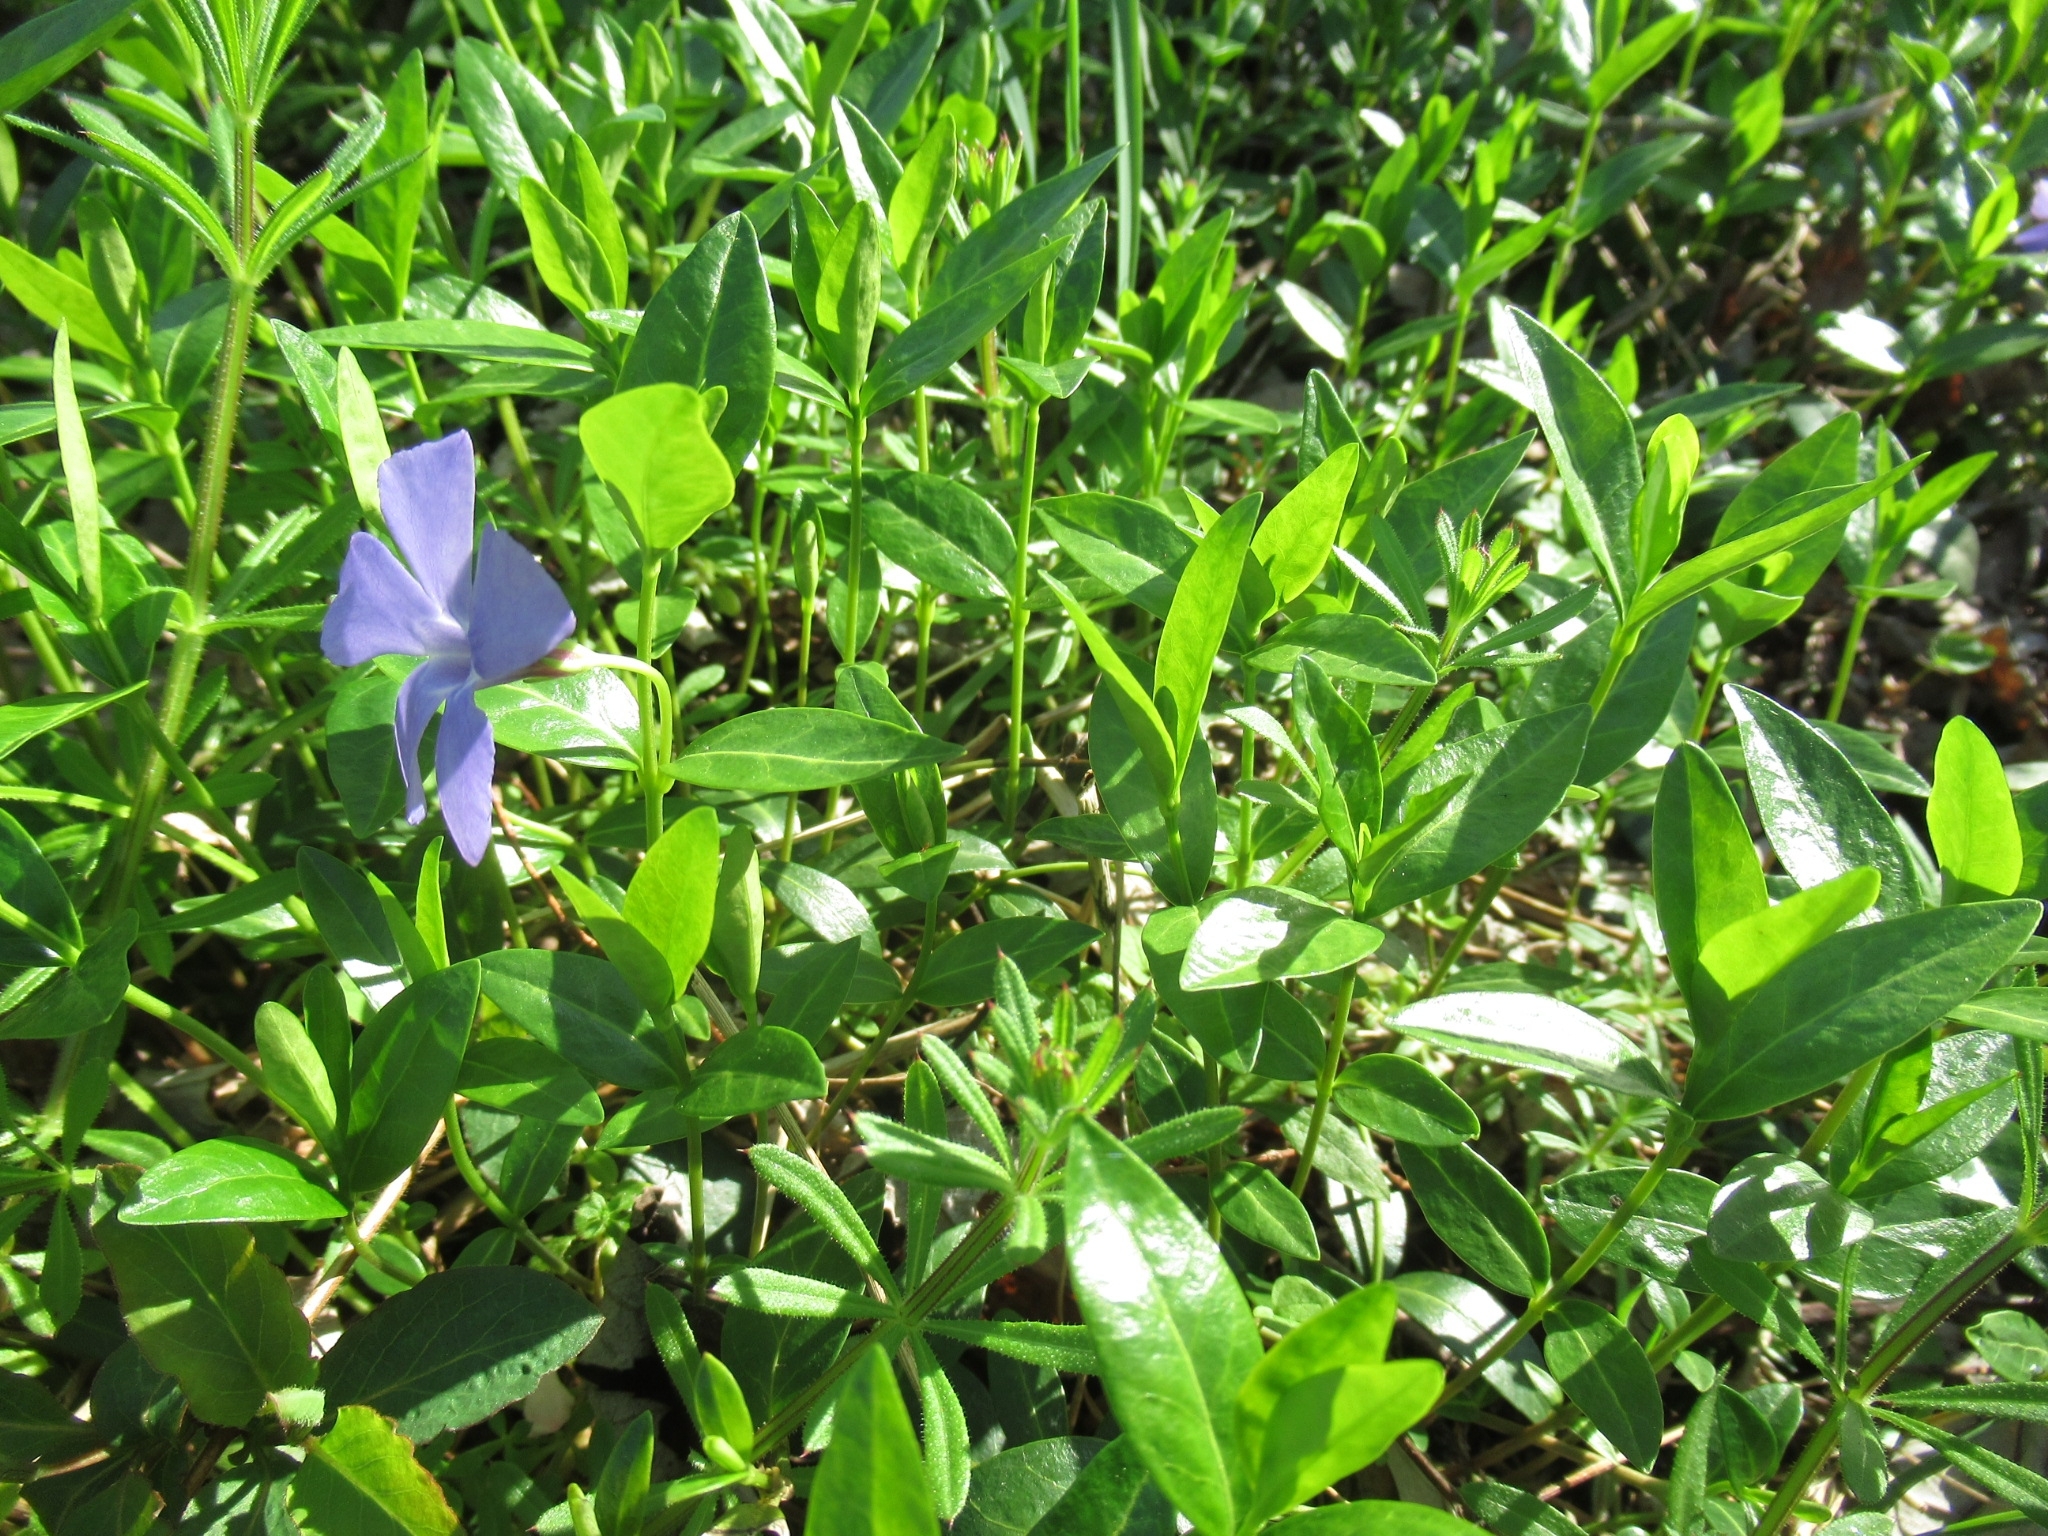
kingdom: Plantae
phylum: Tracheophyta
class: Magnoliopsida
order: Gentianales
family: Apocynaceae
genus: Vinca
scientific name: Vinca minor
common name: Lesser periwinkle
